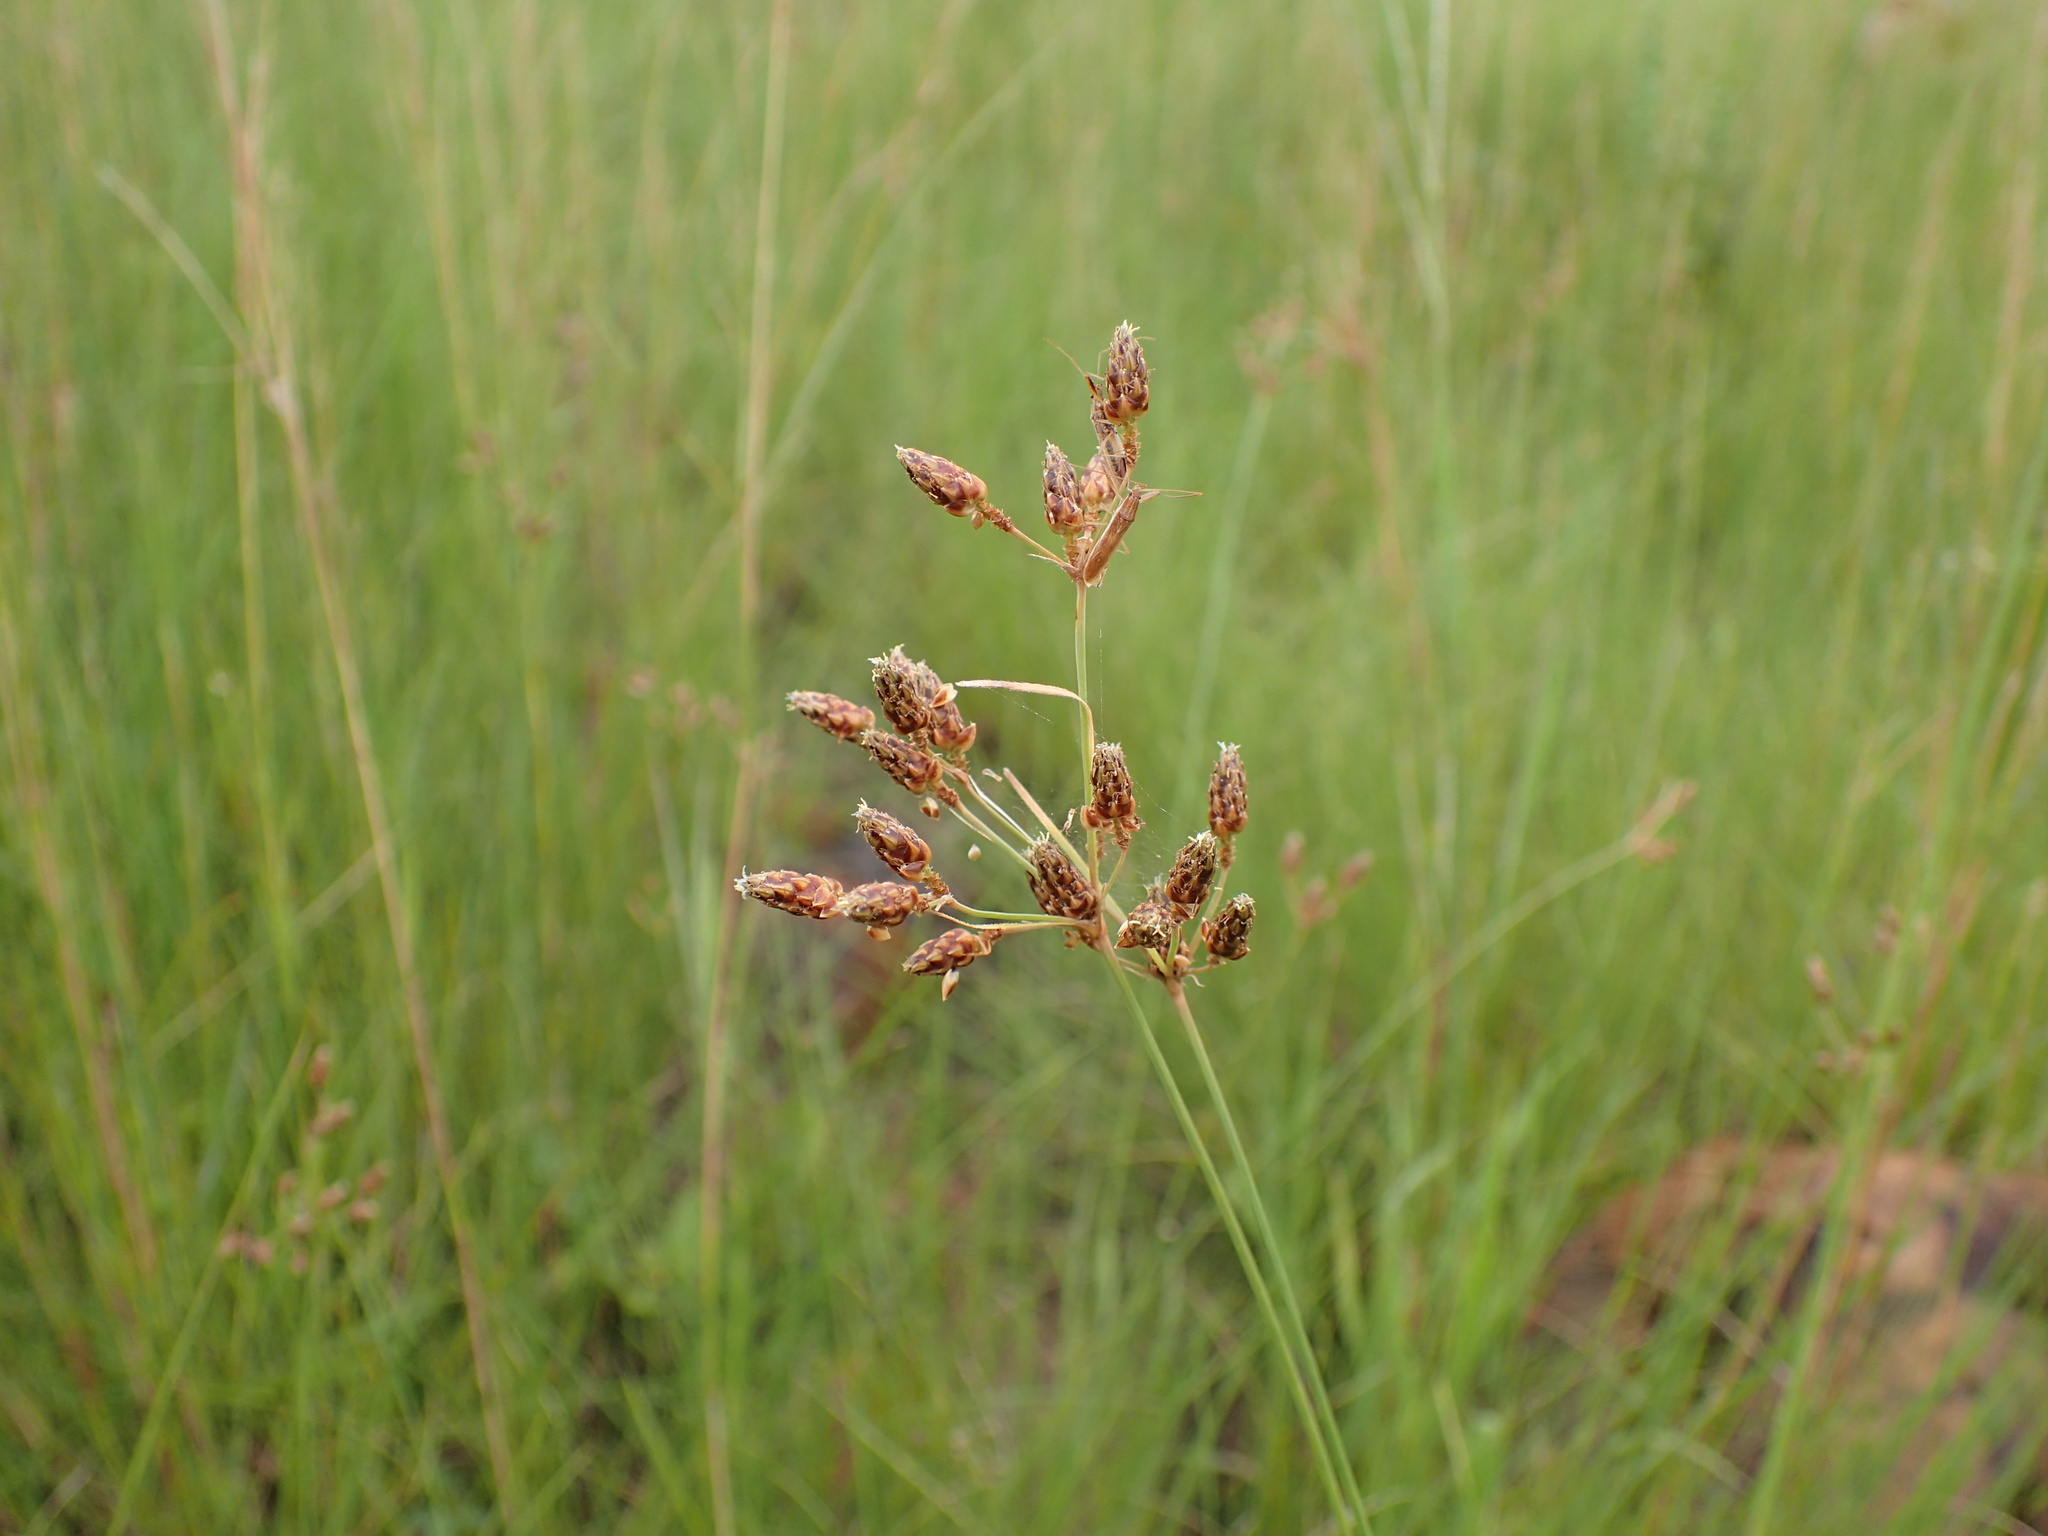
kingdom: Plantae
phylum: Tracheophyta
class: Liliopsida
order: Poales
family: Cyperaceae
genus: Fimbristylis
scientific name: Fimbristylis dichotoma
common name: Forked fimbry
